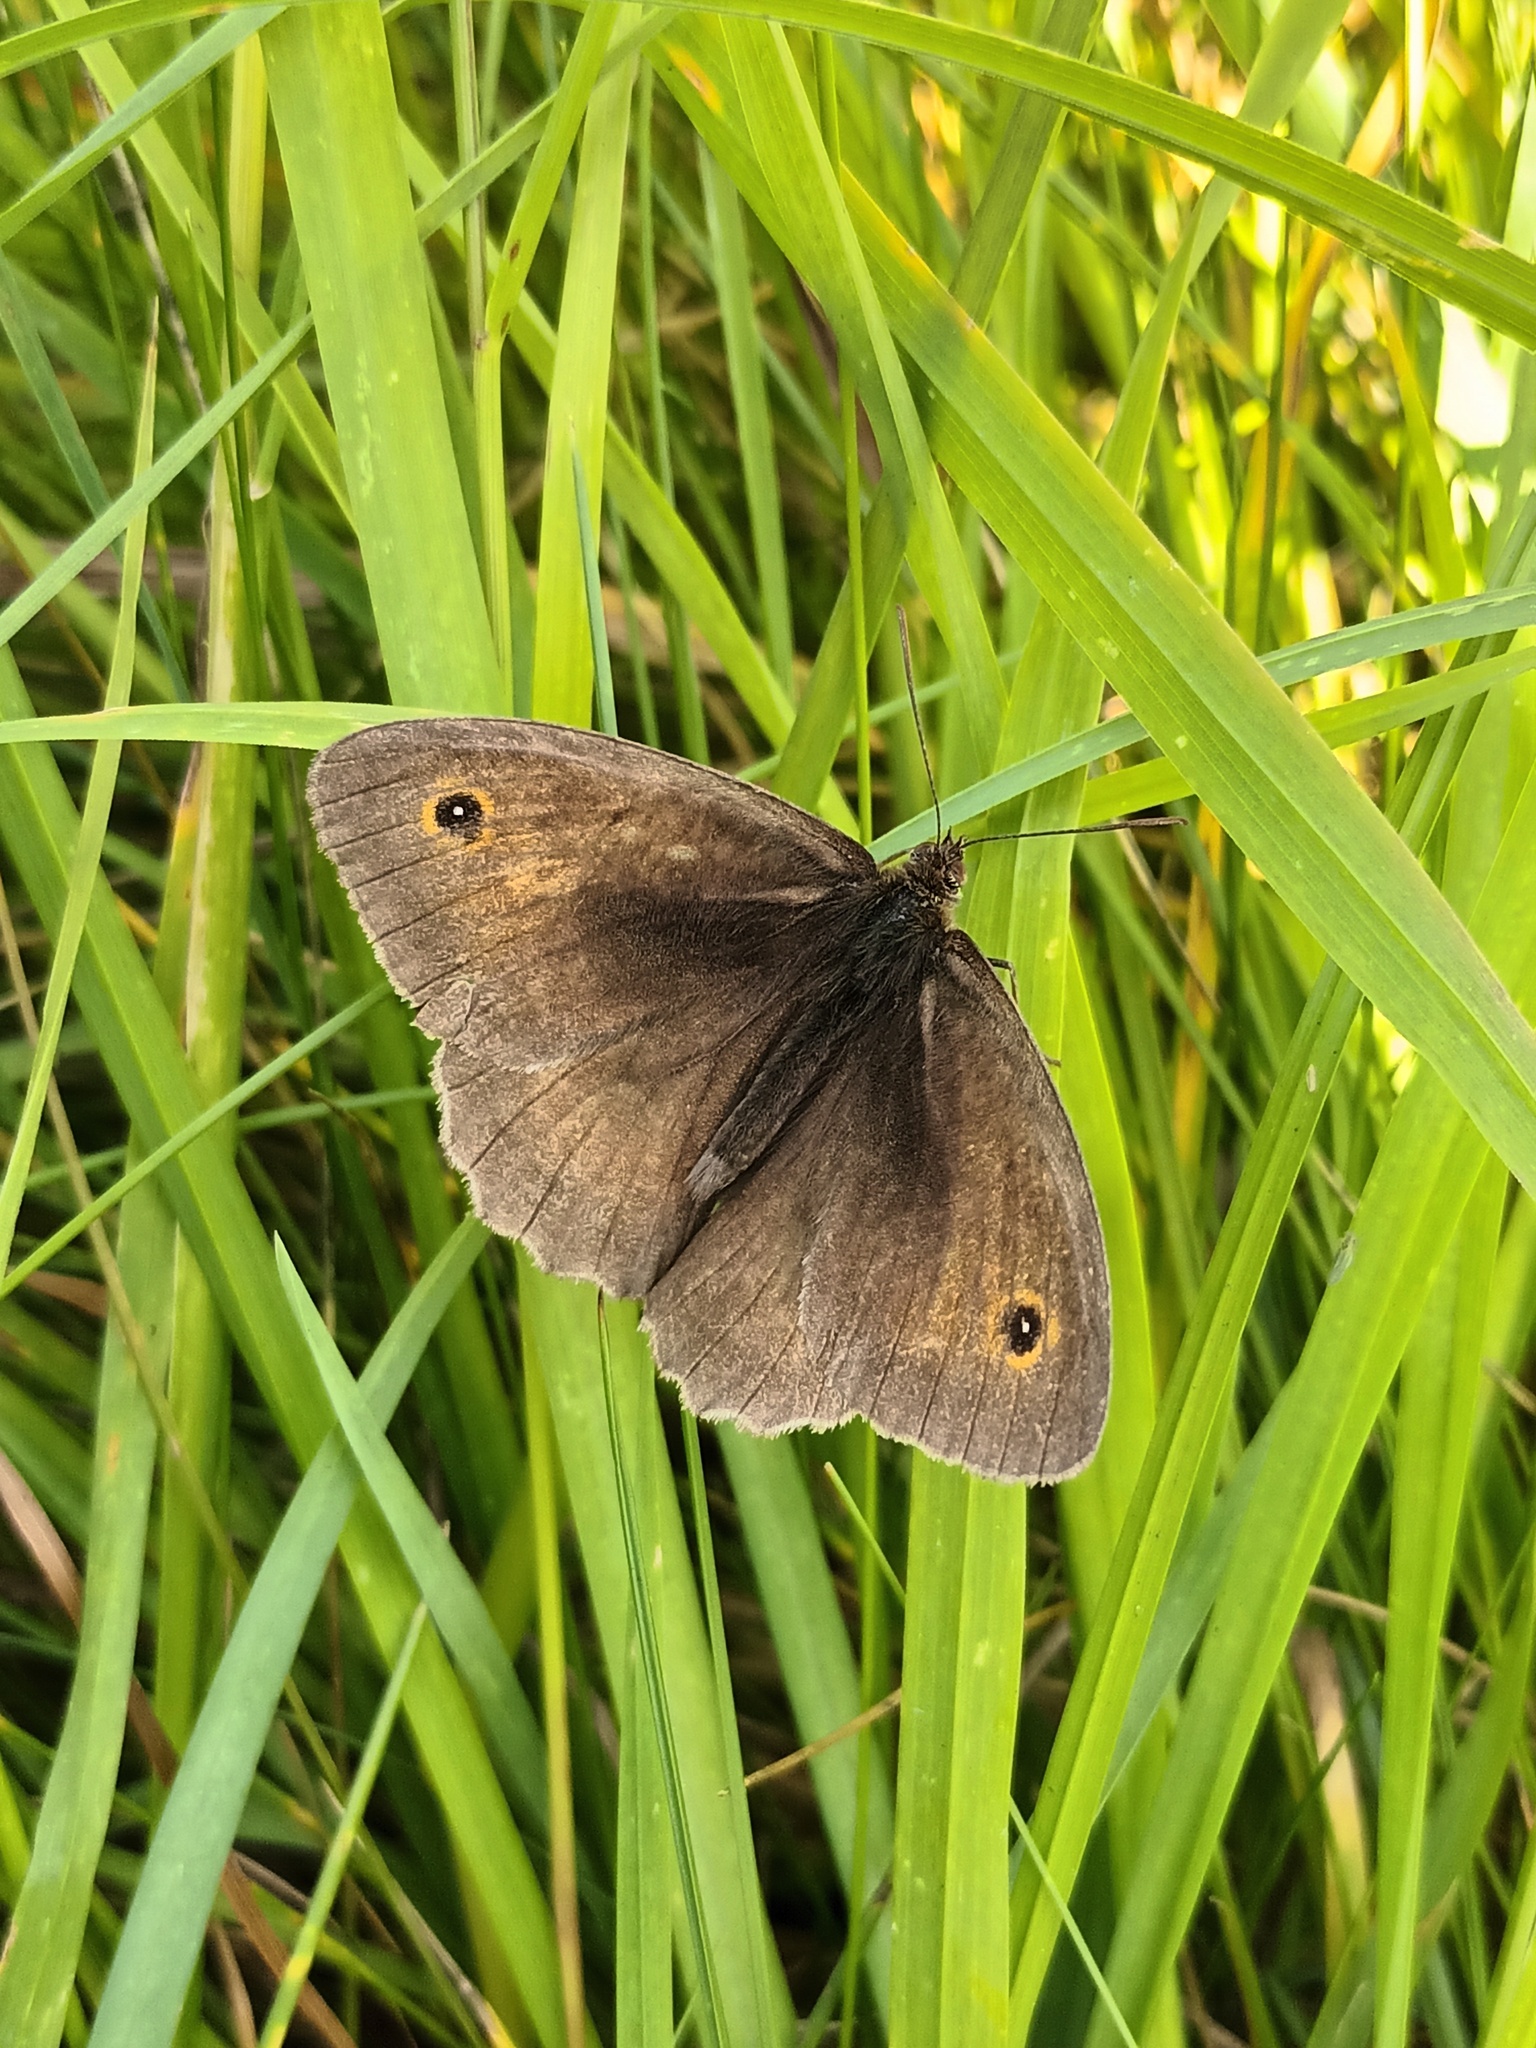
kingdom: Animalia
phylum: Arthropoda
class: Insecta
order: Lepidoptera
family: Nymphalidae
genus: Maniola
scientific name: Maniola jurtina
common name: Meadow brown
